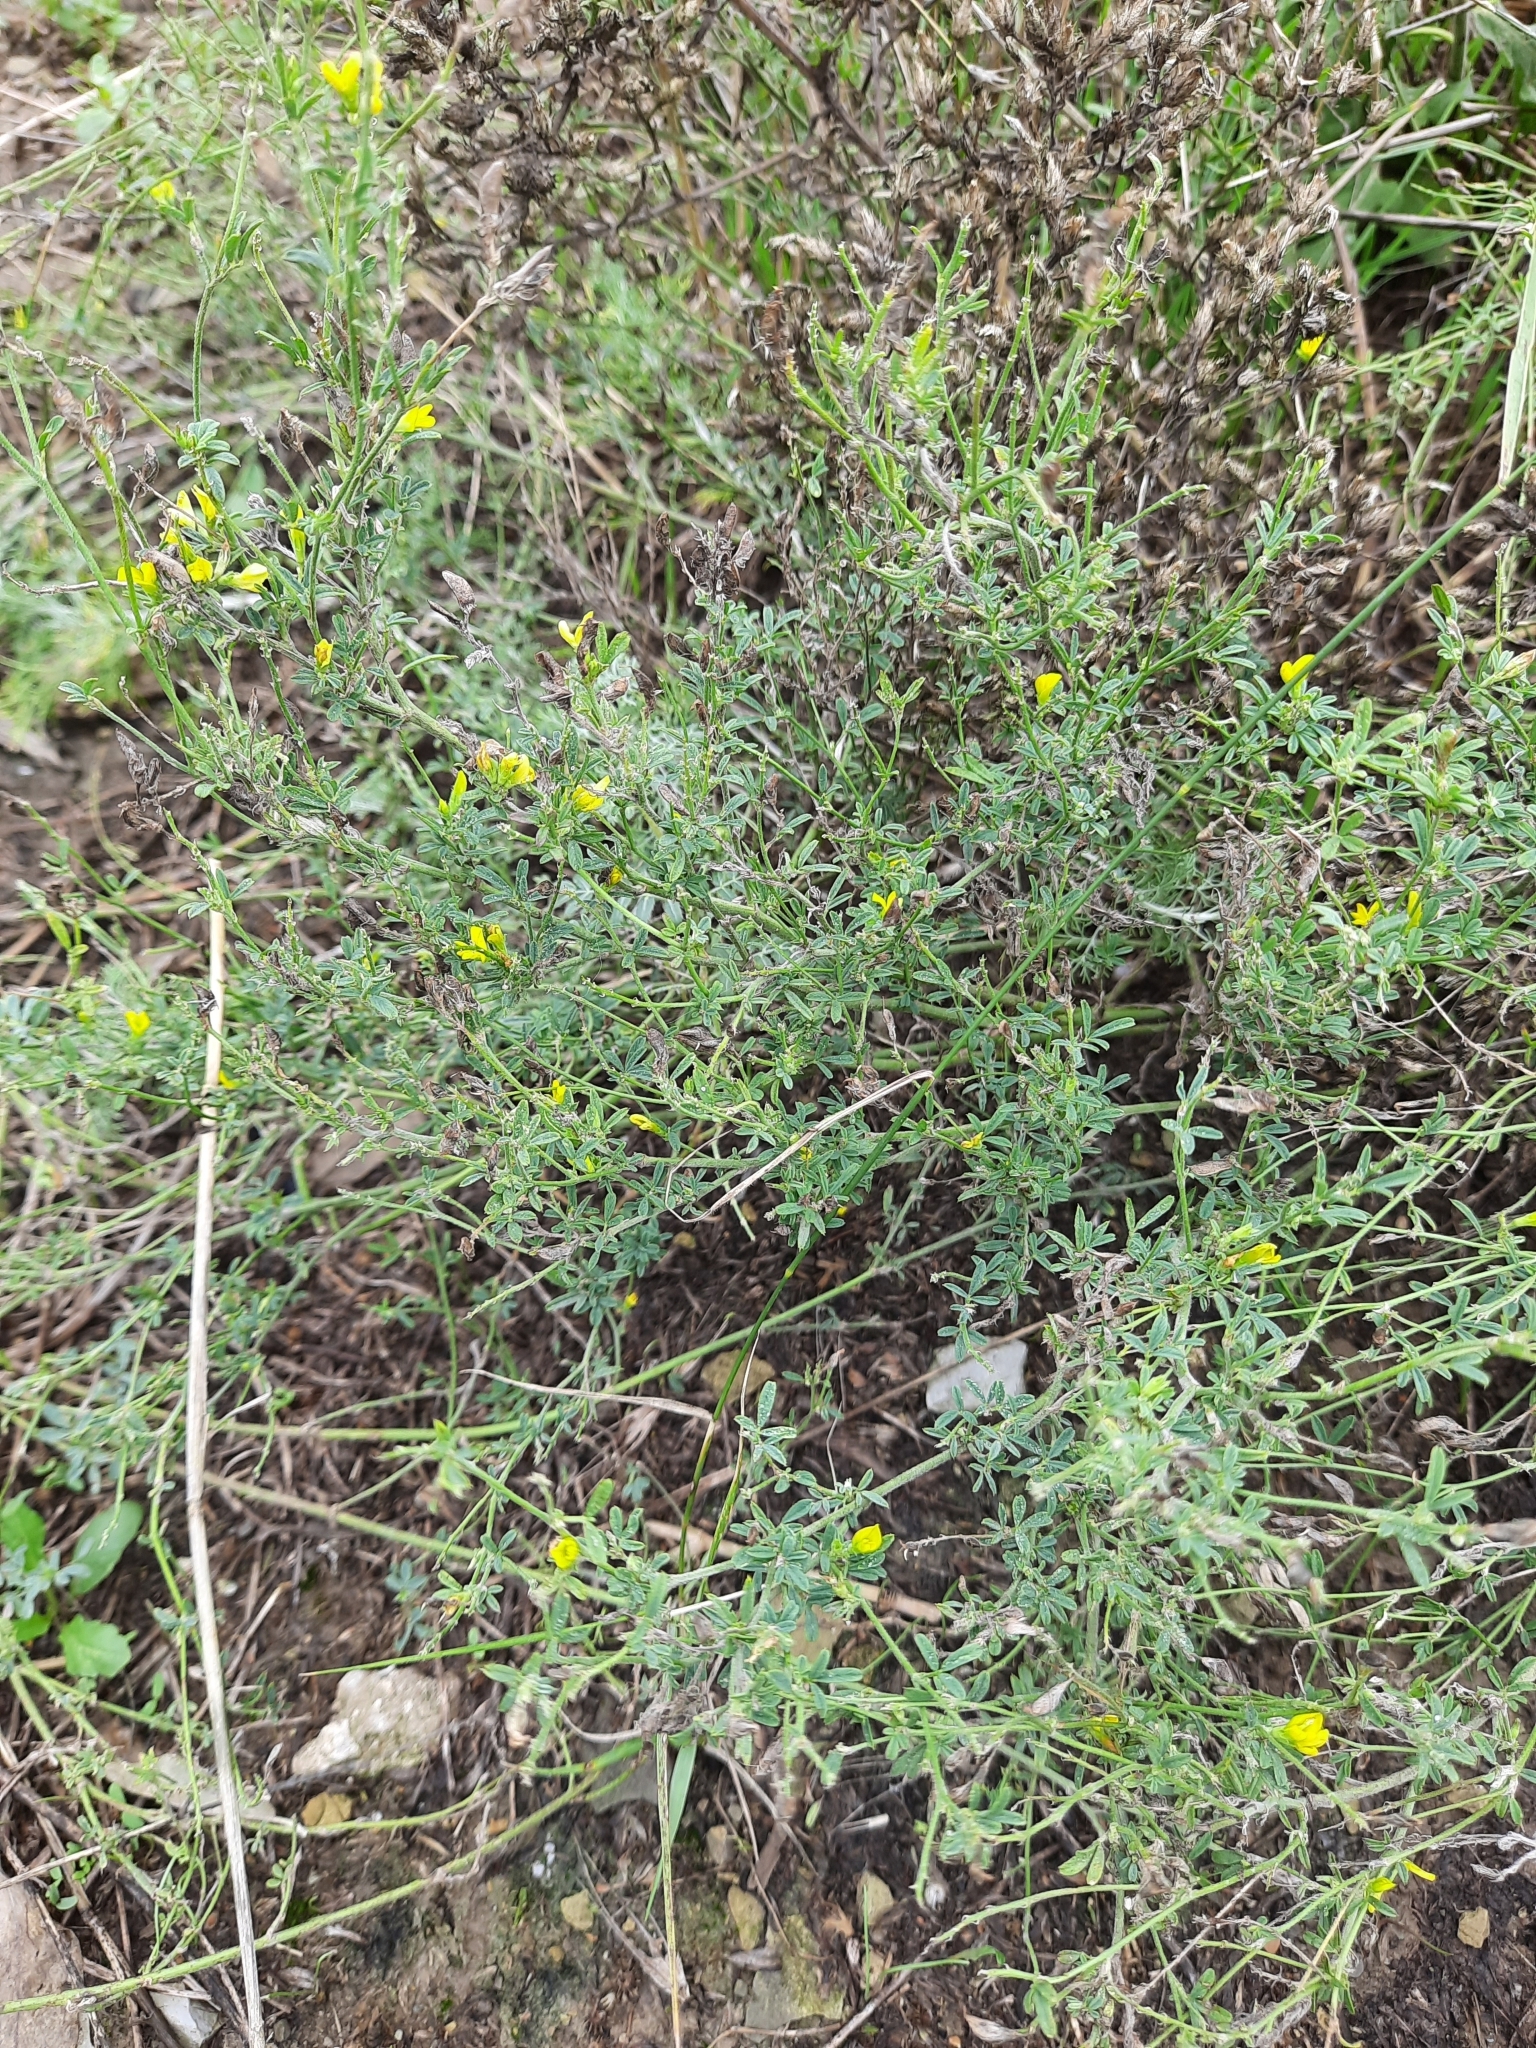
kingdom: Plantae
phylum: Tracheophyta
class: Magnoliopsida
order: Fabales
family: Fabaceae
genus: Medicago
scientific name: Medicago falcata
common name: Sickle medick
